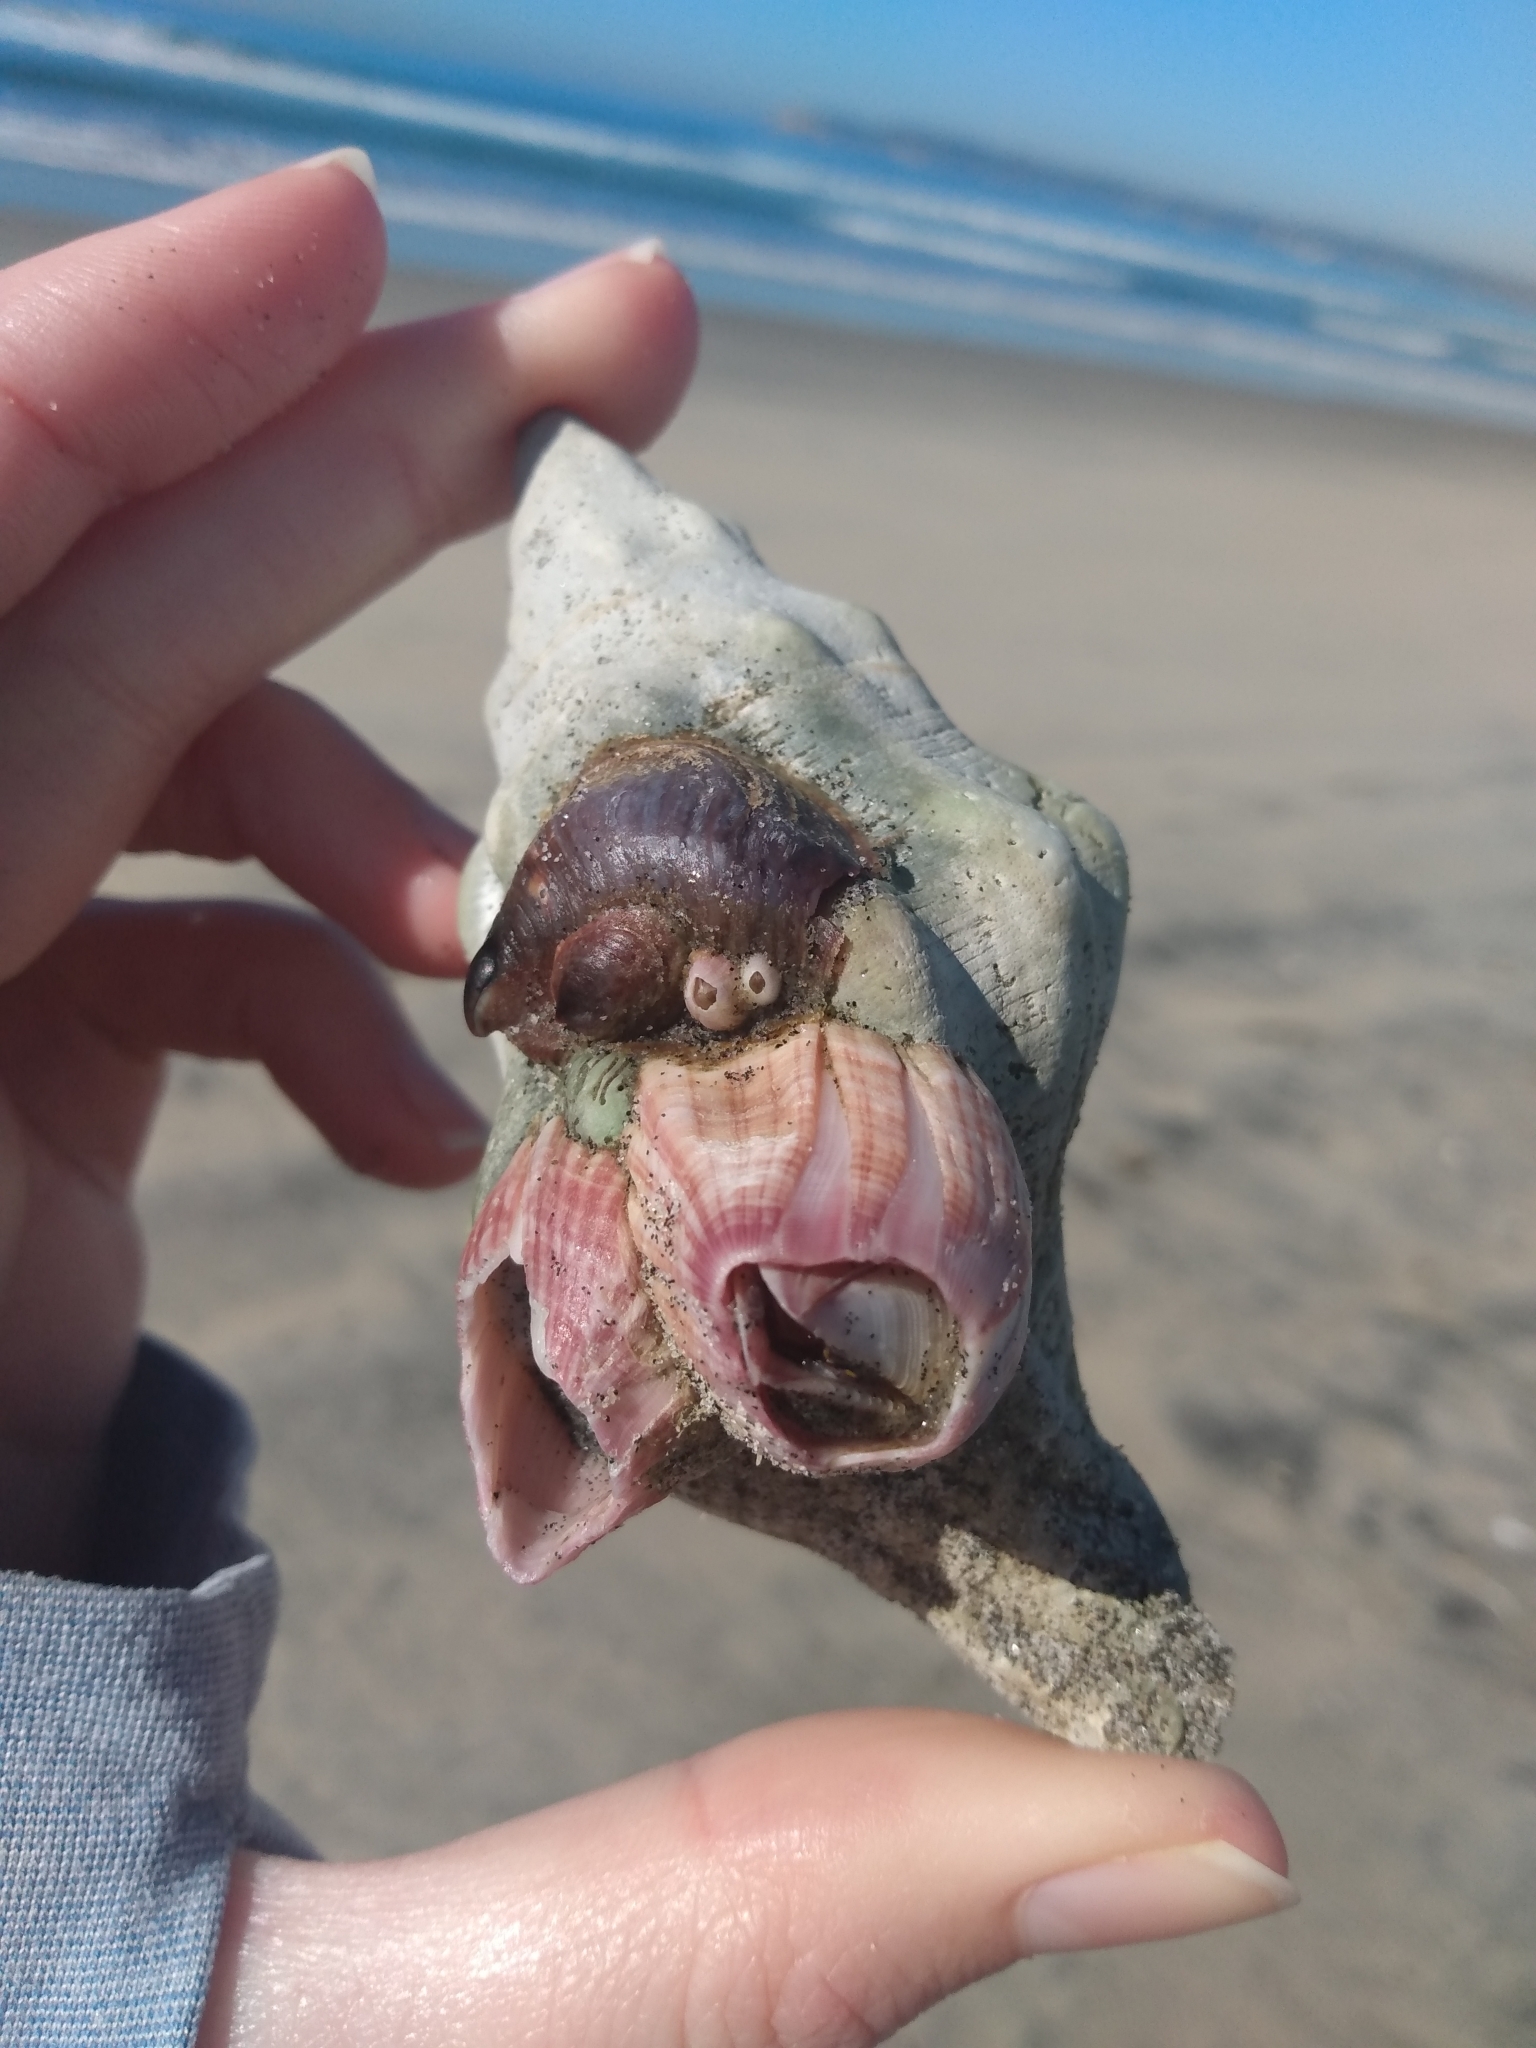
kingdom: Animalia
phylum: Mollusca
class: Gastropoda
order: Neogastropoda
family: Austrosiphonidae
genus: Kelletia
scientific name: Kelletia kelletii
